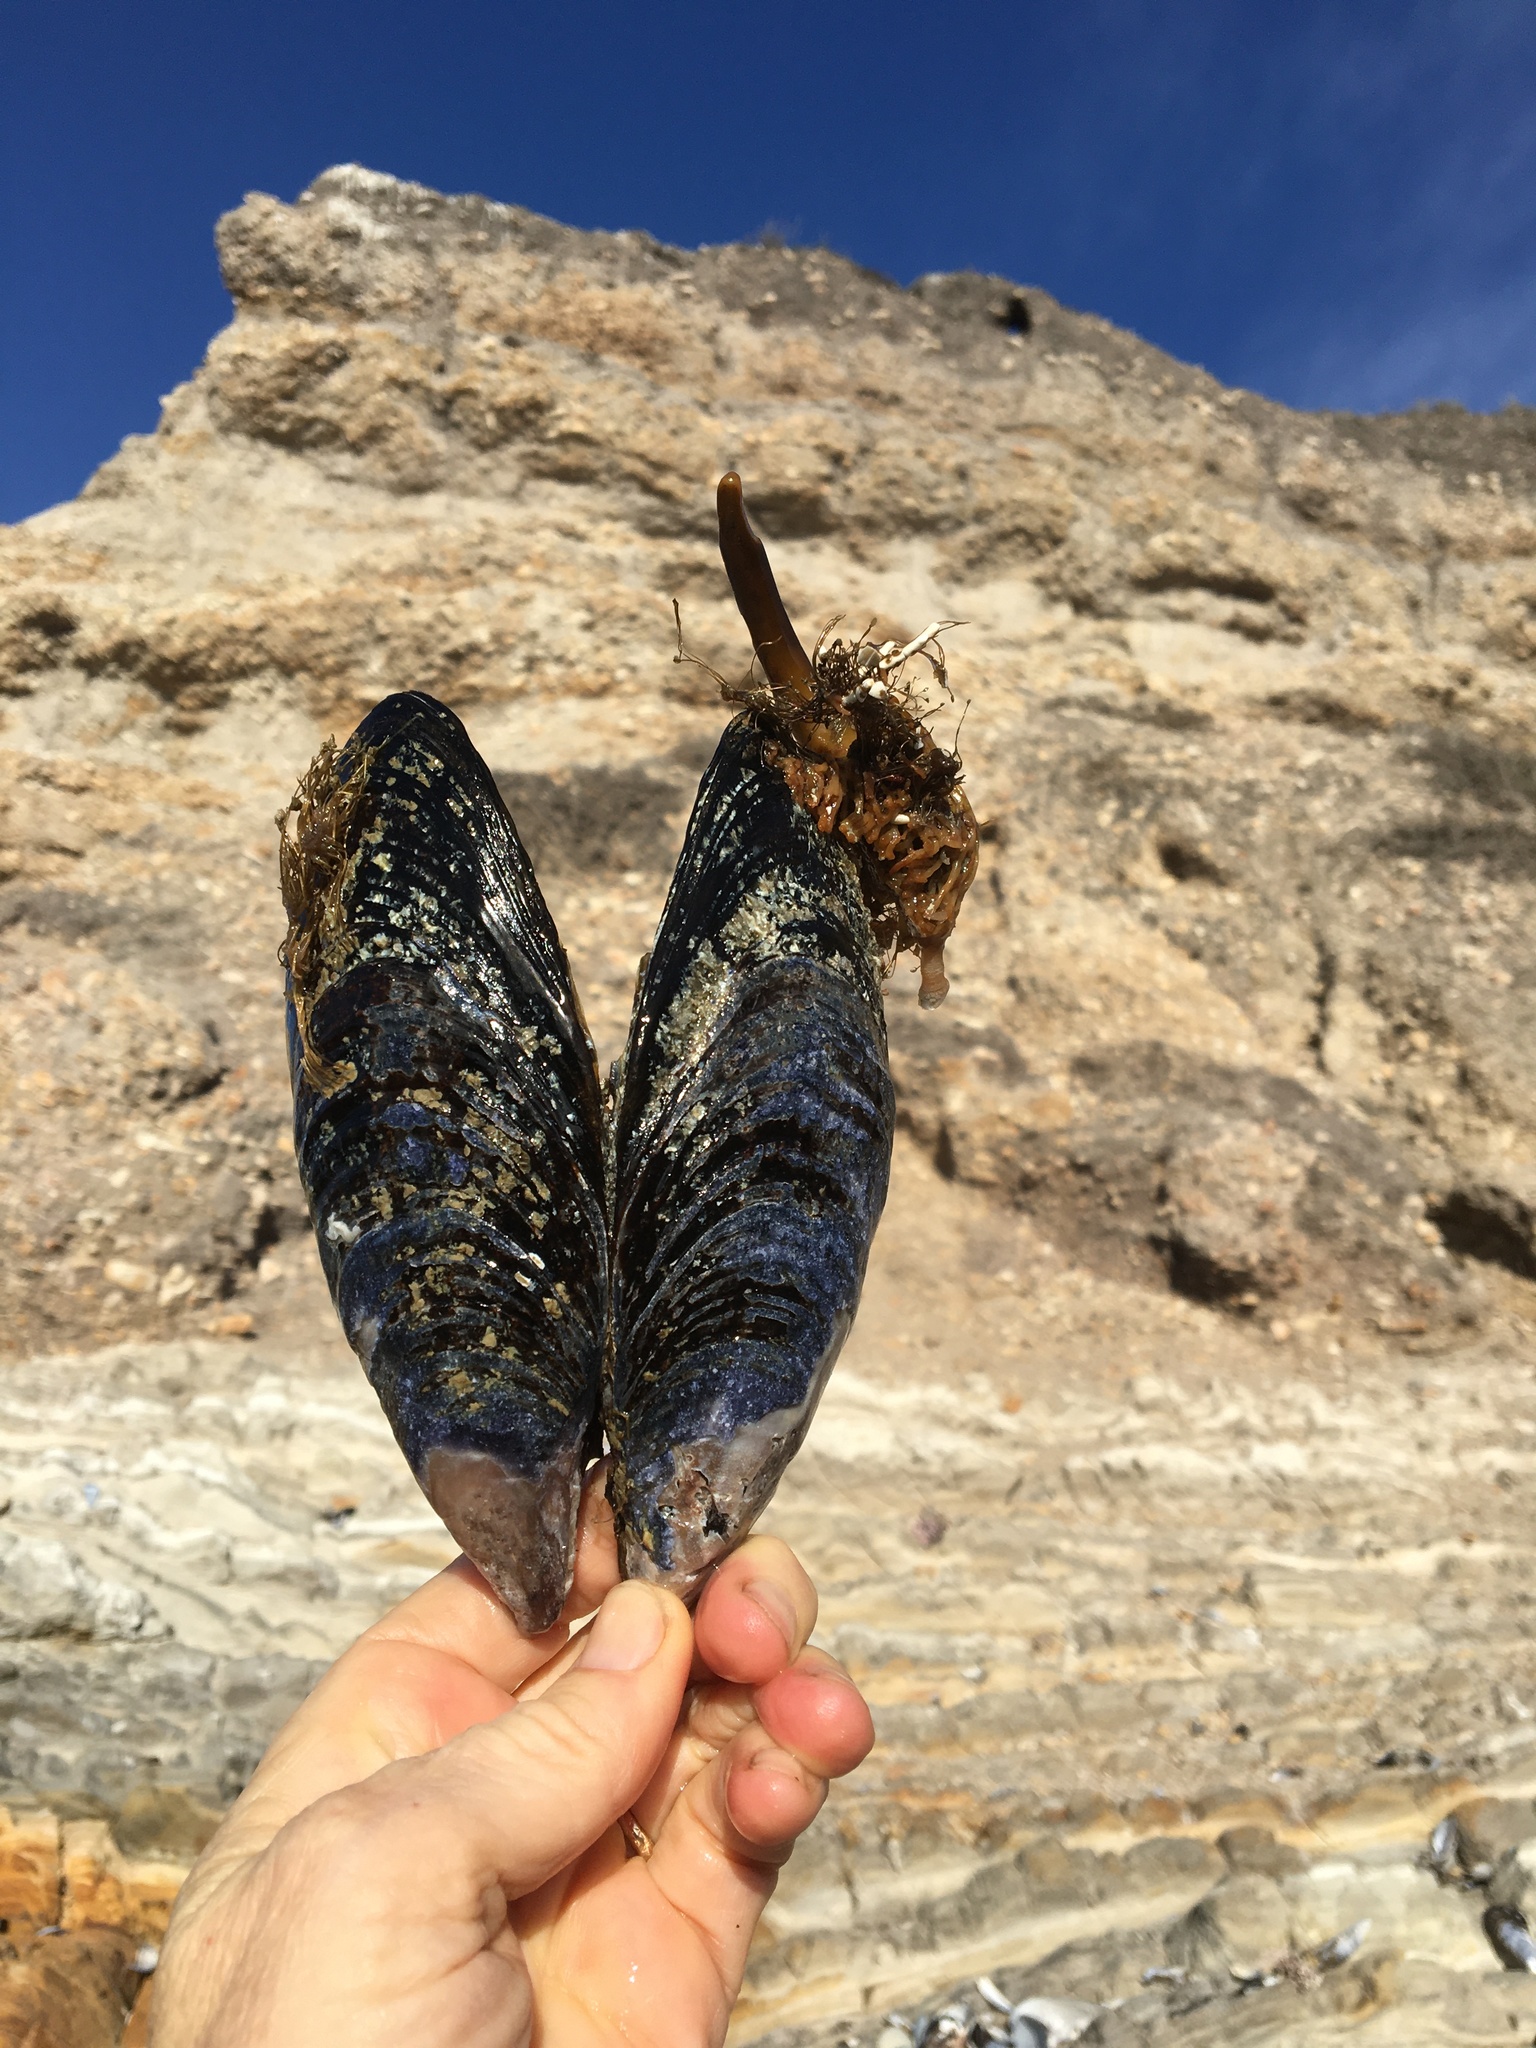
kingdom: Animalia
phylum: Mollusca
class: Bivalvia
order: Mytilida
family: Mytilidae
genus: Mytilus
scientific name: Mytilus californianus
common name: California mussel
